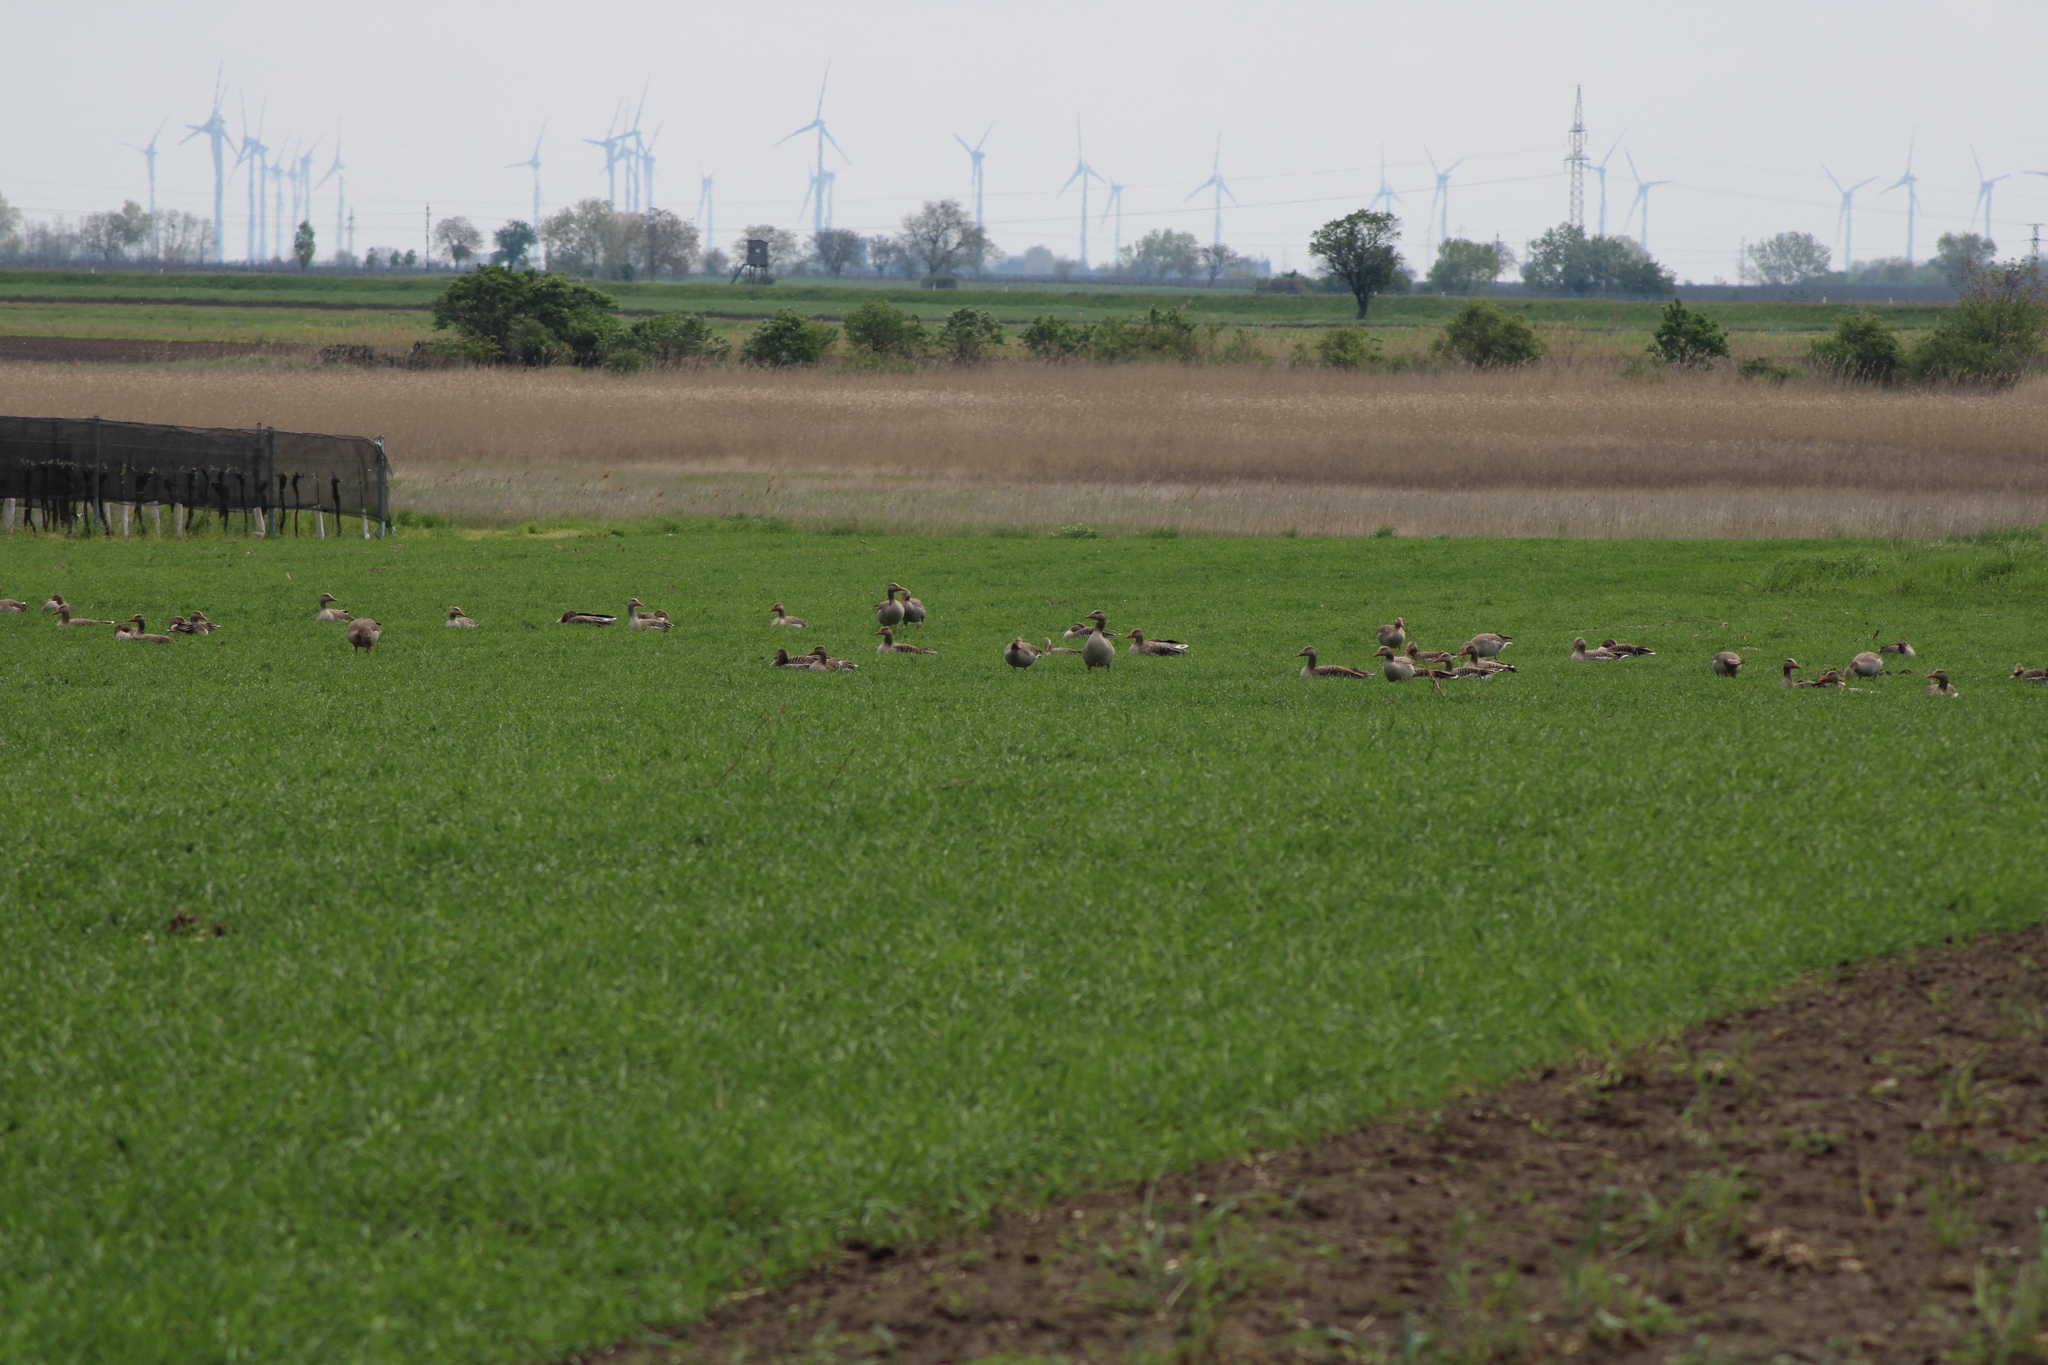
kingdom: Animalia
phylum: Chordata
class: Aves
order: Anseriformes
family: Anatidae
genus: Anser
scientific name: Anser anser
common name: Greylag goose
